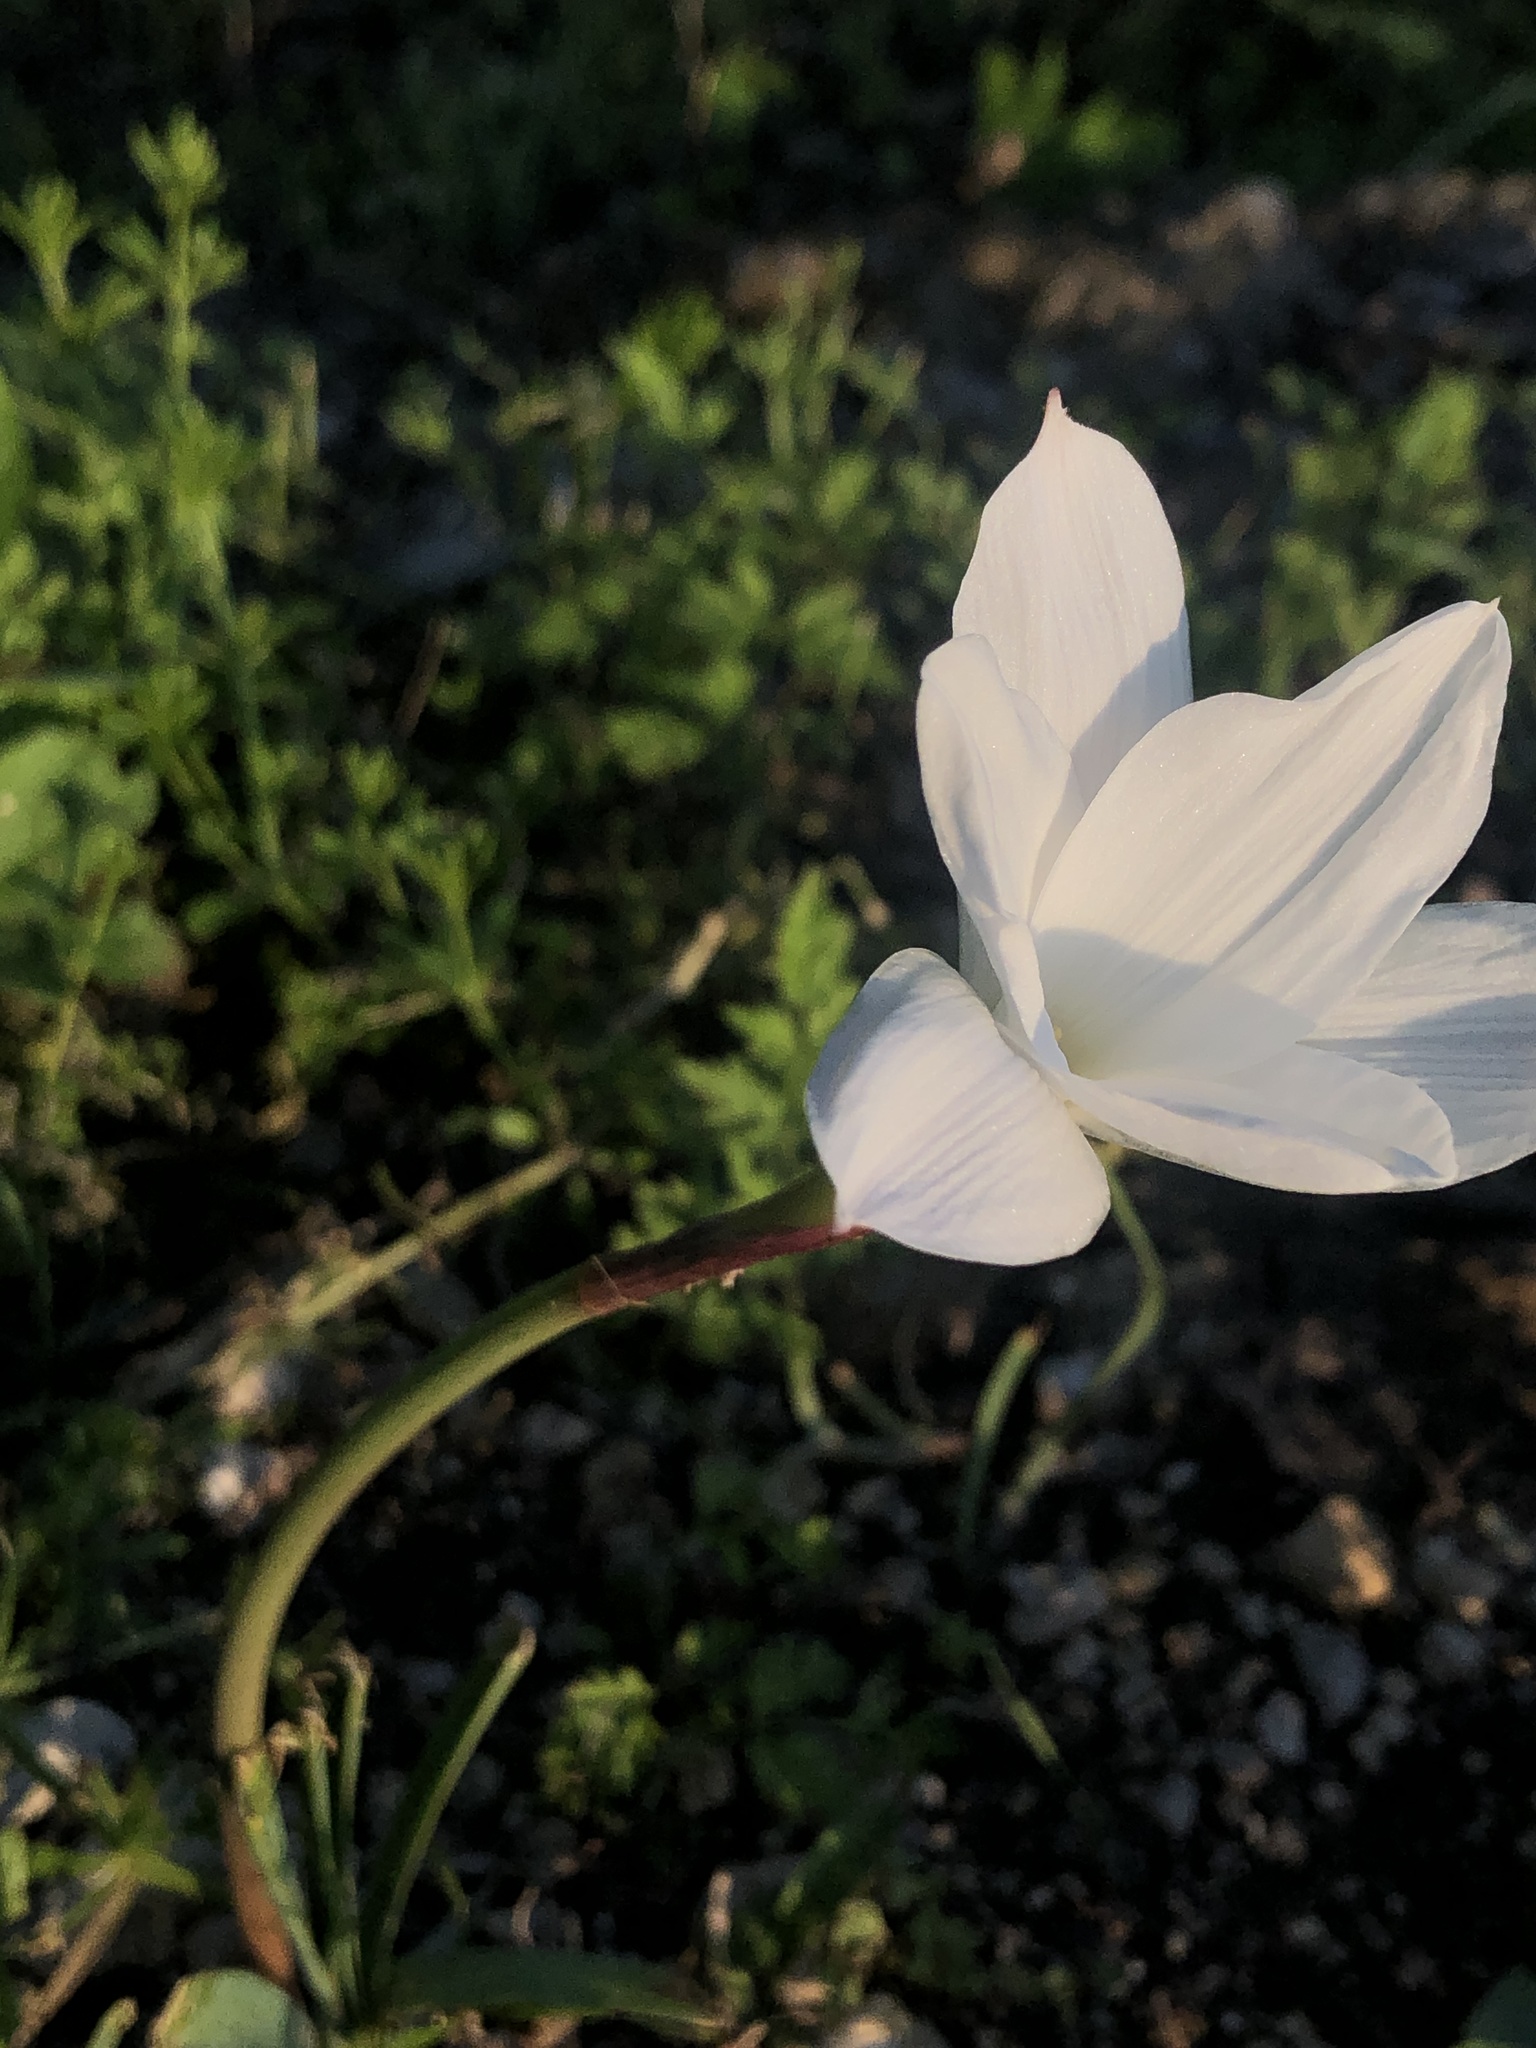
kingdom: Plantae
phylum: Tracheophyta
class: Liliopsida
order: Asparagales
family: Amaryllidaceae
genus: Zephyranthes
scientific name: Zephyranthes drummondii
